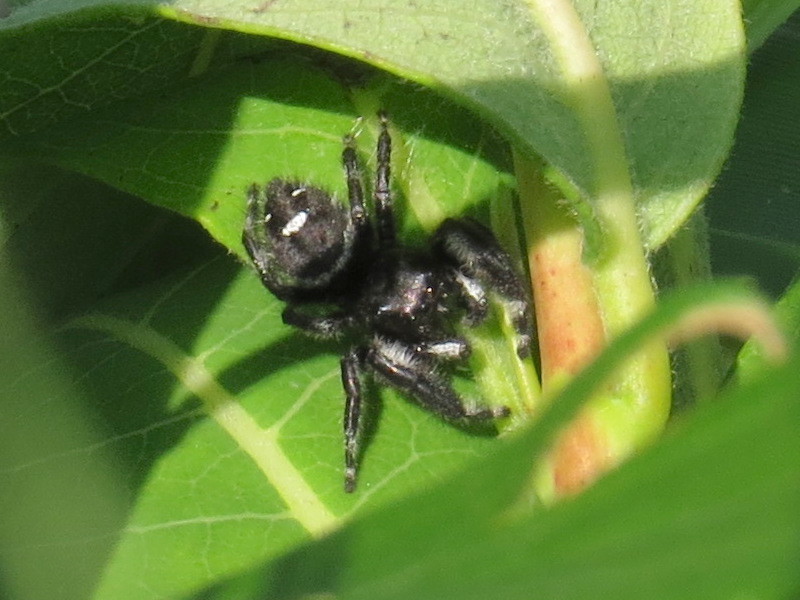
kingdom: Animalia
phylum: Arthropoda
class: Arachnida
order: Araneae
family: Salticidae
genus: Phidippus
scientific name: Phidippus audax
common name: Bold jumper
